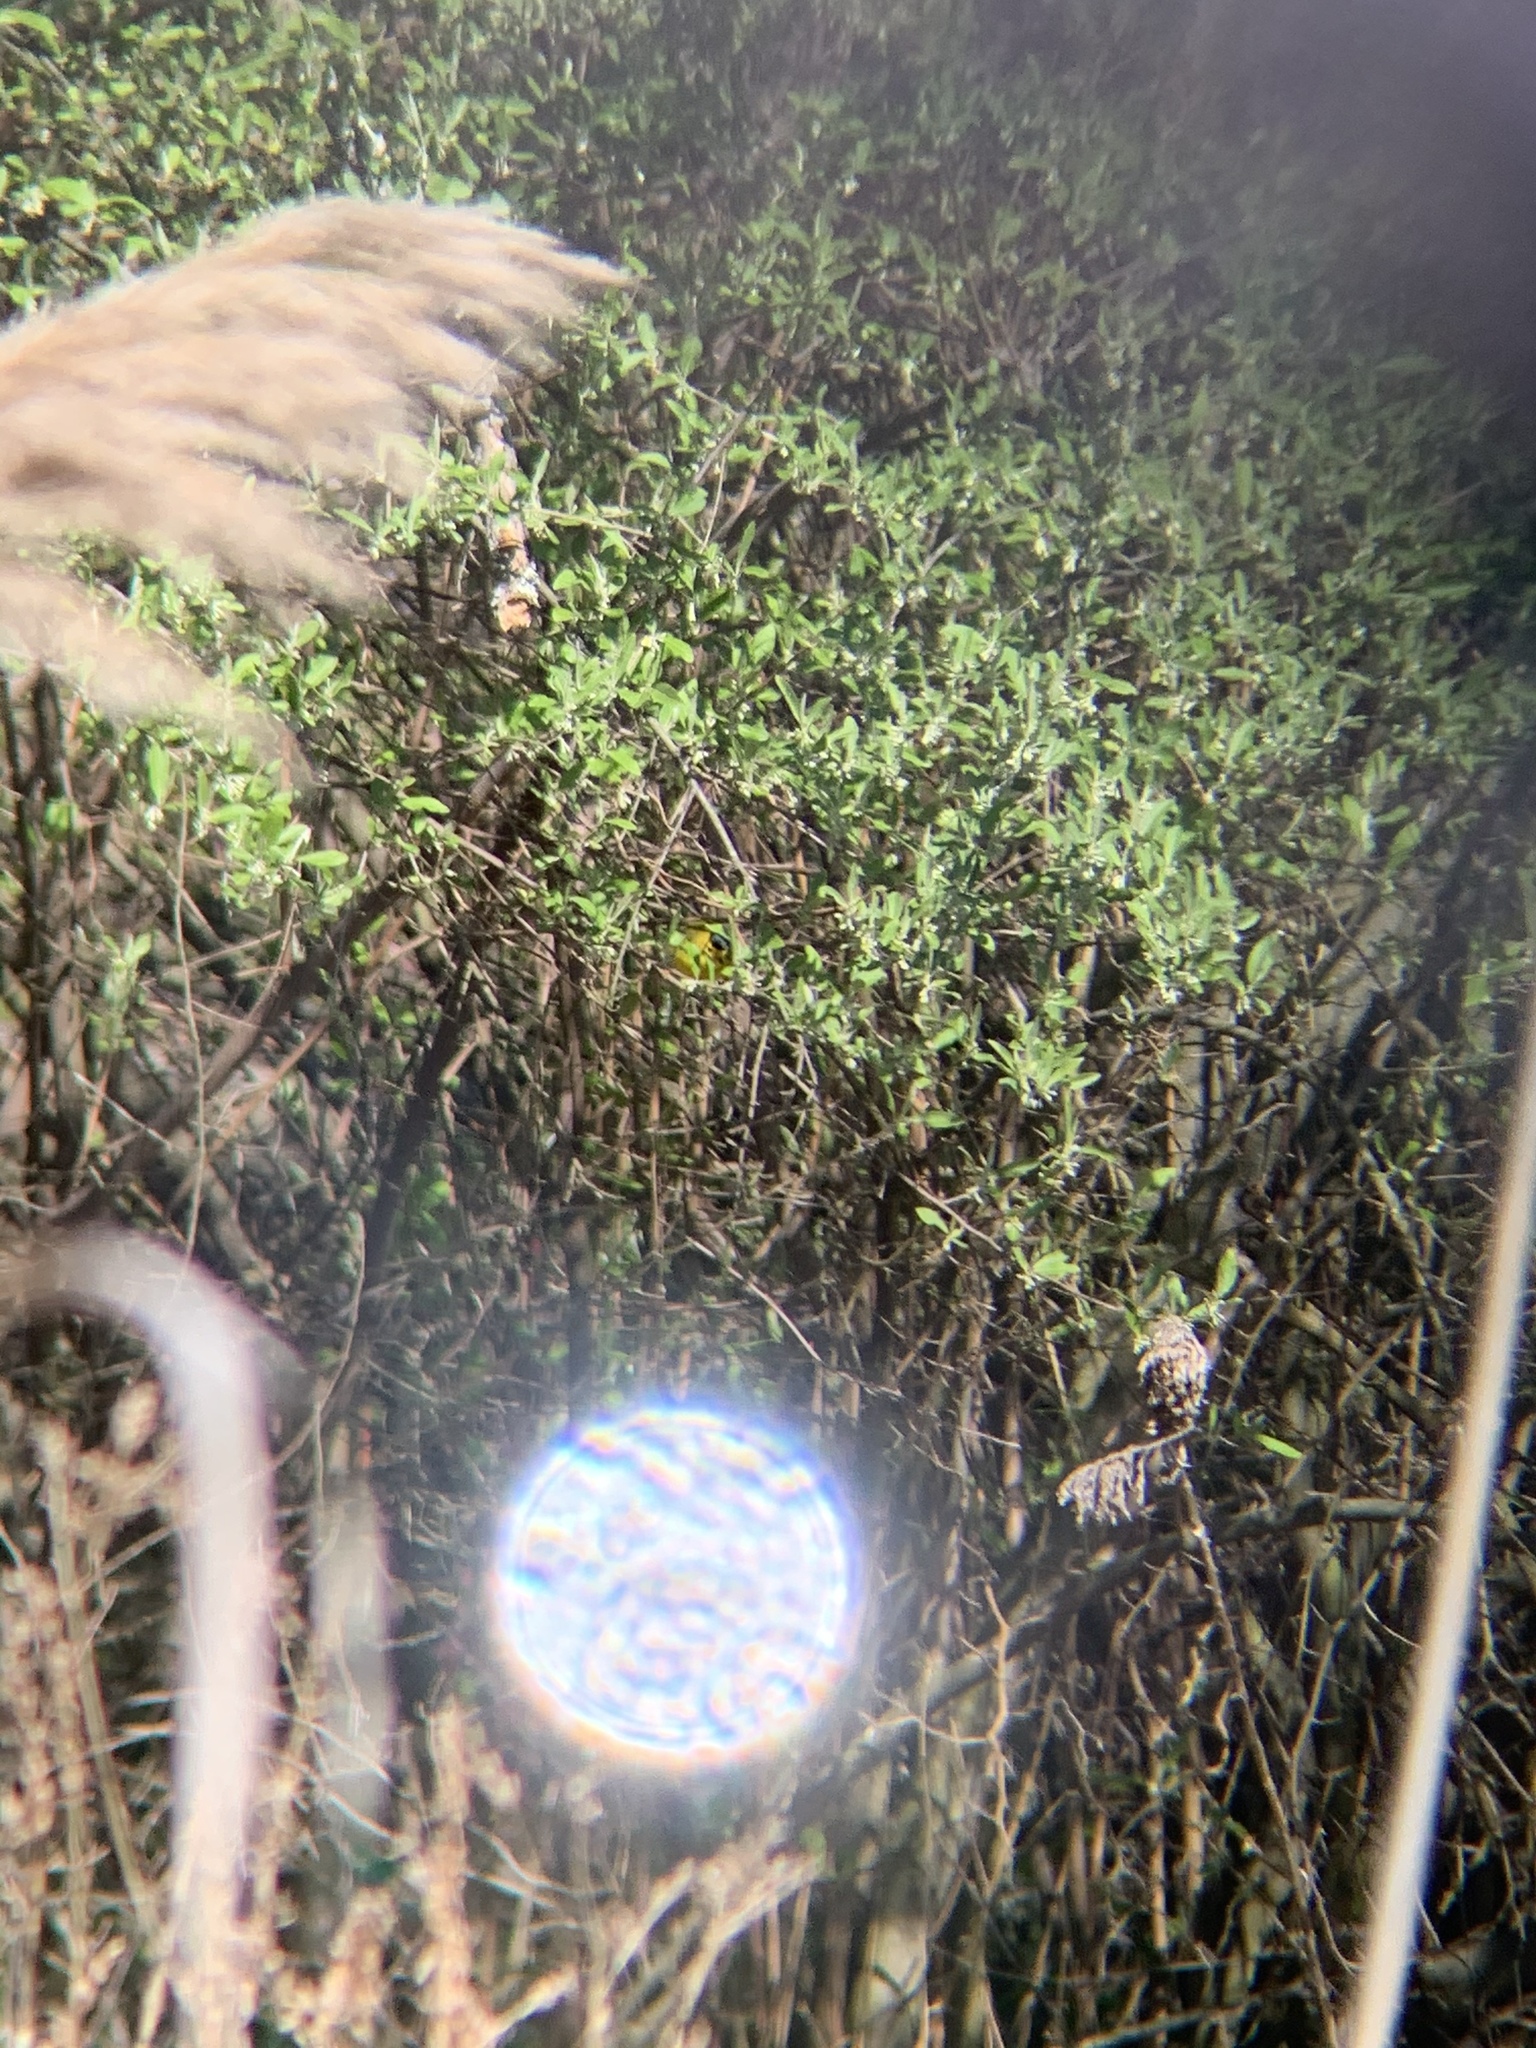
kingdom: Animalia
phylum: Chordata
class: Aves
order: Passeriformes
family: Parulidae
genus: Cardellina
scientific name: Cardellina pusilla
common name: Wilson's warbler
